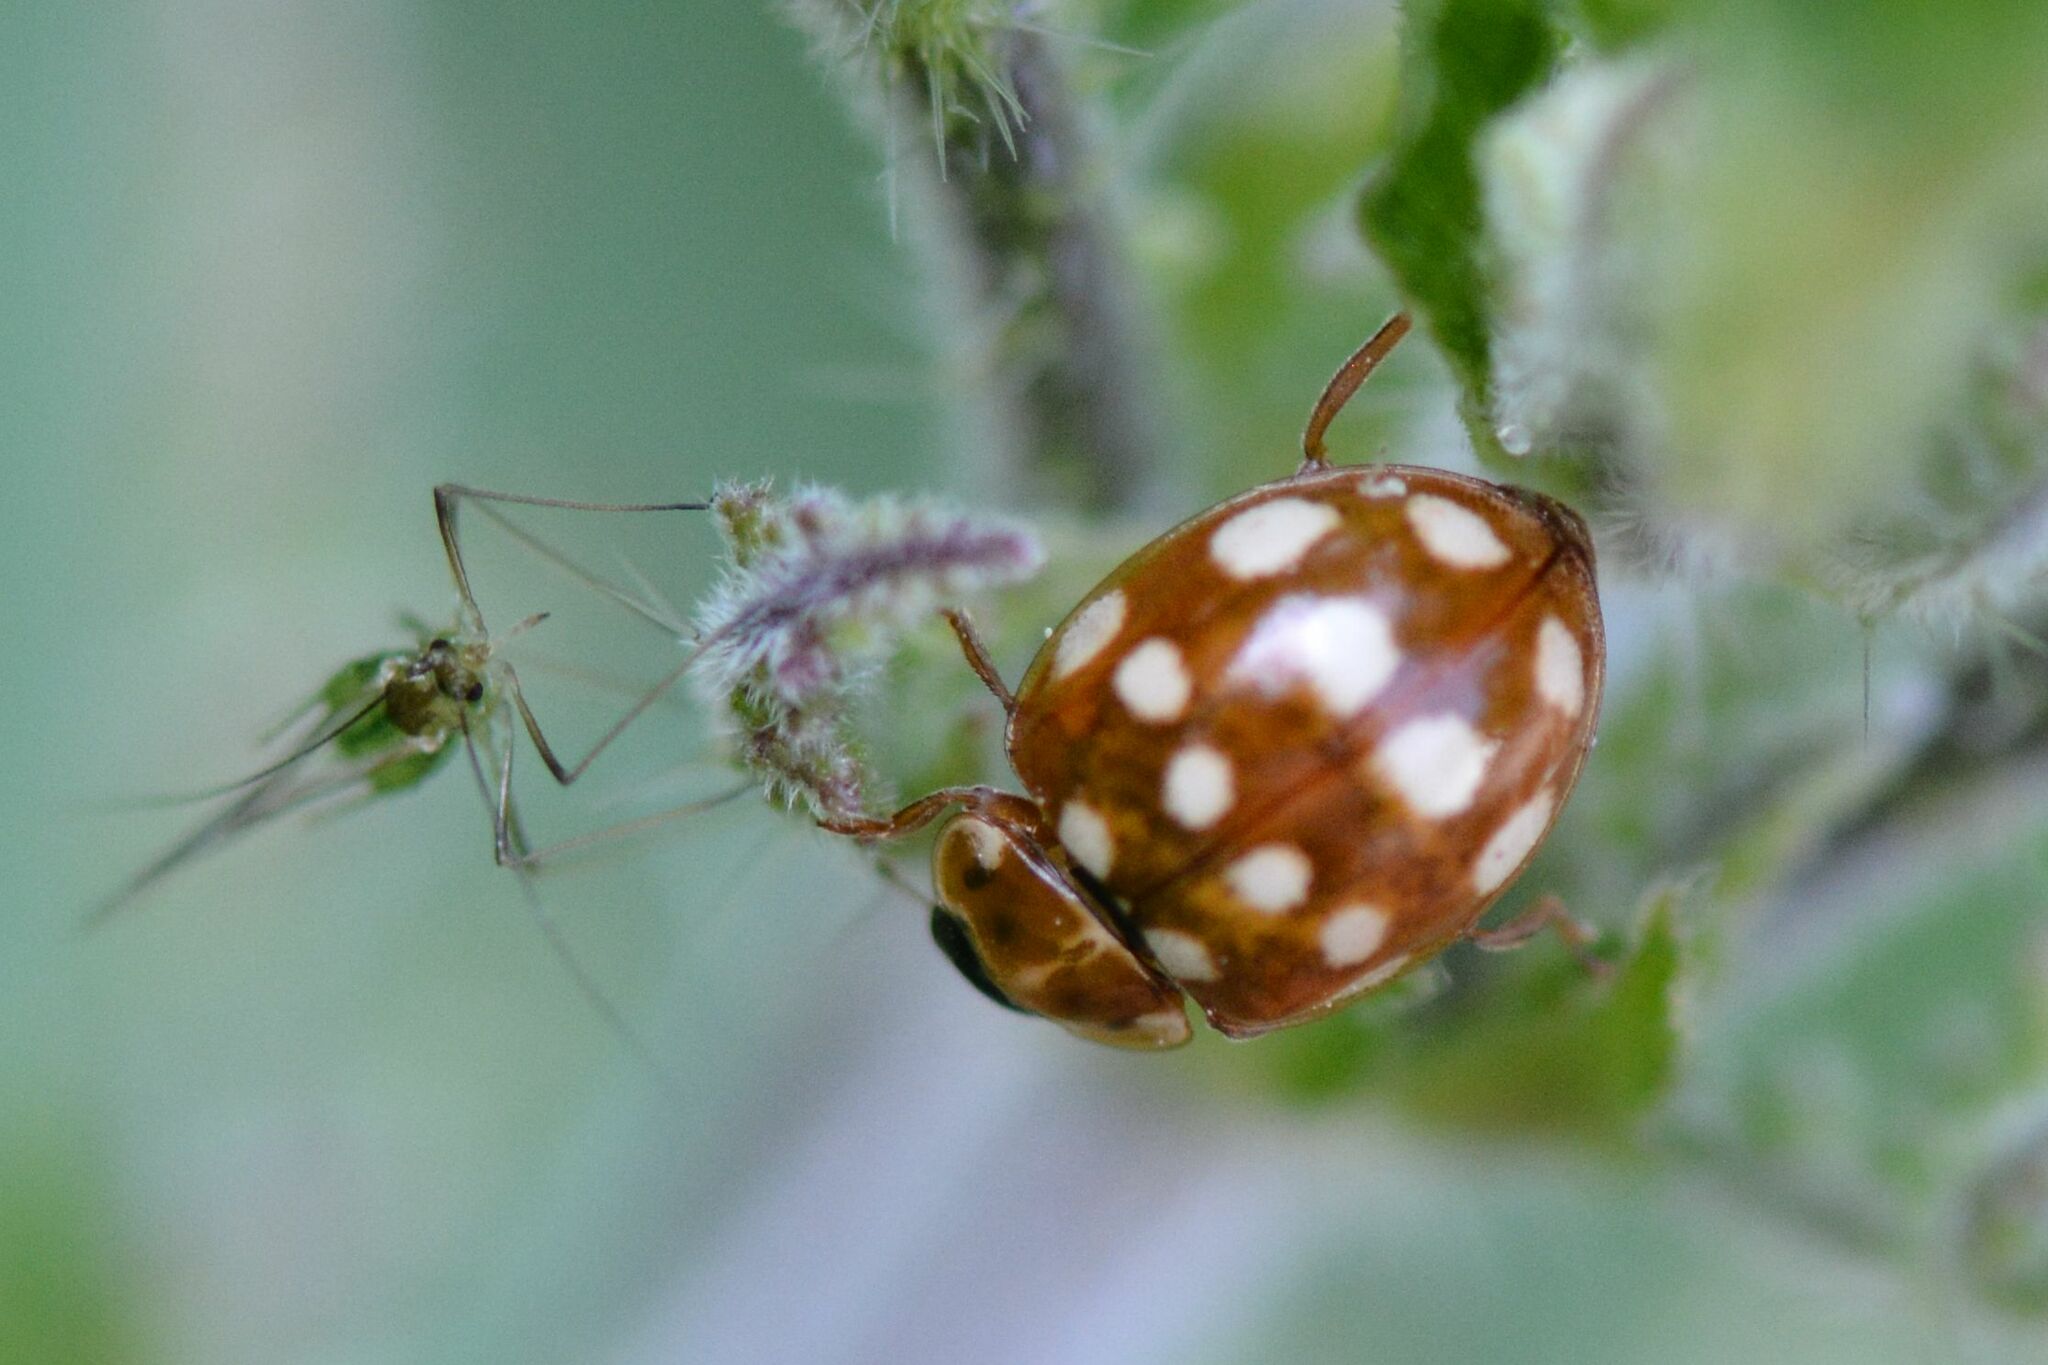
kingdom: Animalia
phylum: Arthropoda
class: Insecta
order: Coleoptera
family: Coccinellidae
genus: Calvia
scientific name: Calvia quatuordecimguttata
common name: Cream-spot ladybird
